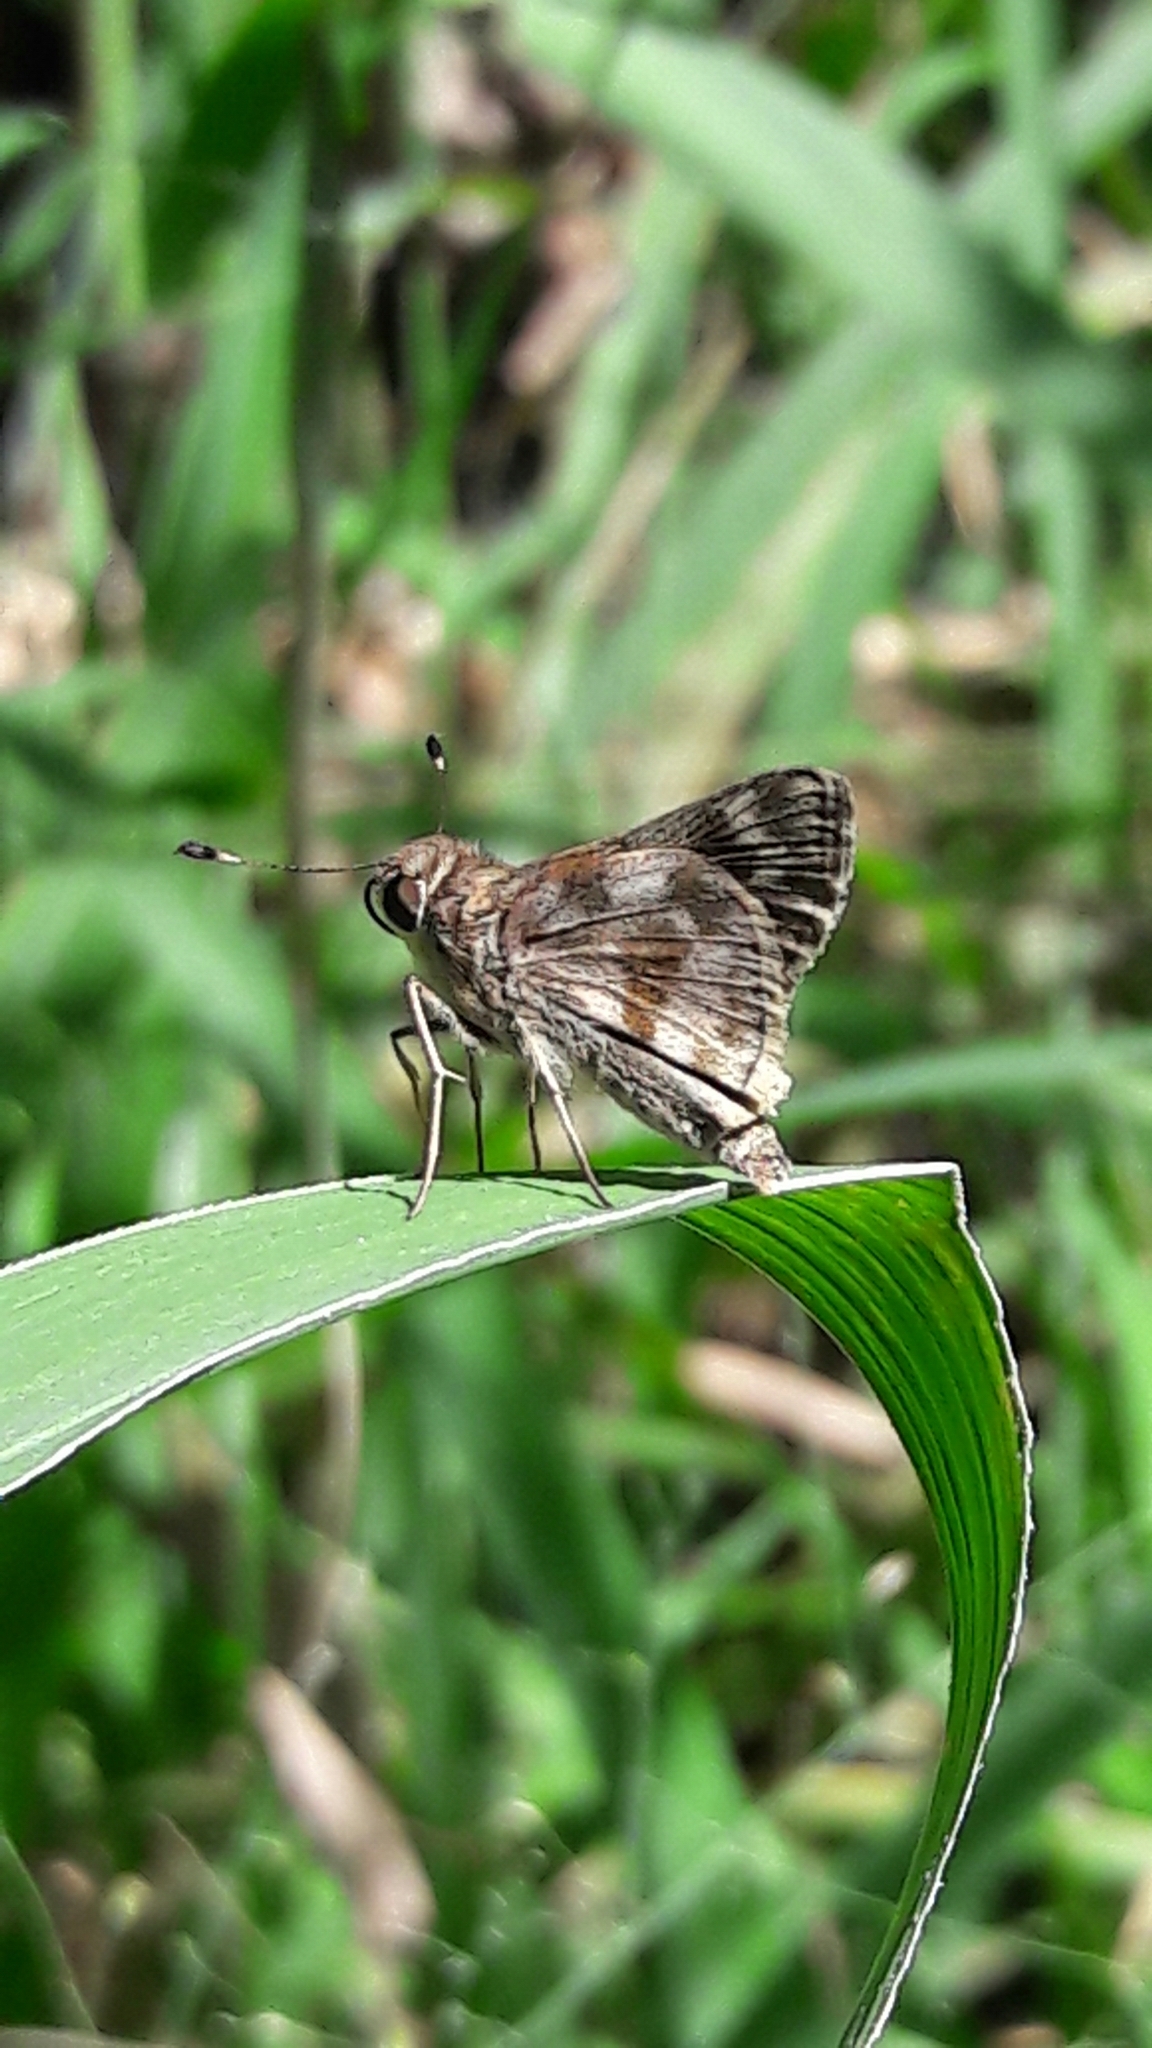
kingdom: Animalia
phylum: Arthropoda
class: Insecta
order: Lepidoptera
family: Hesperiidae
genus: Pompeius
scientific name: Pompeius pompeius
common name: Pompeius skipper
